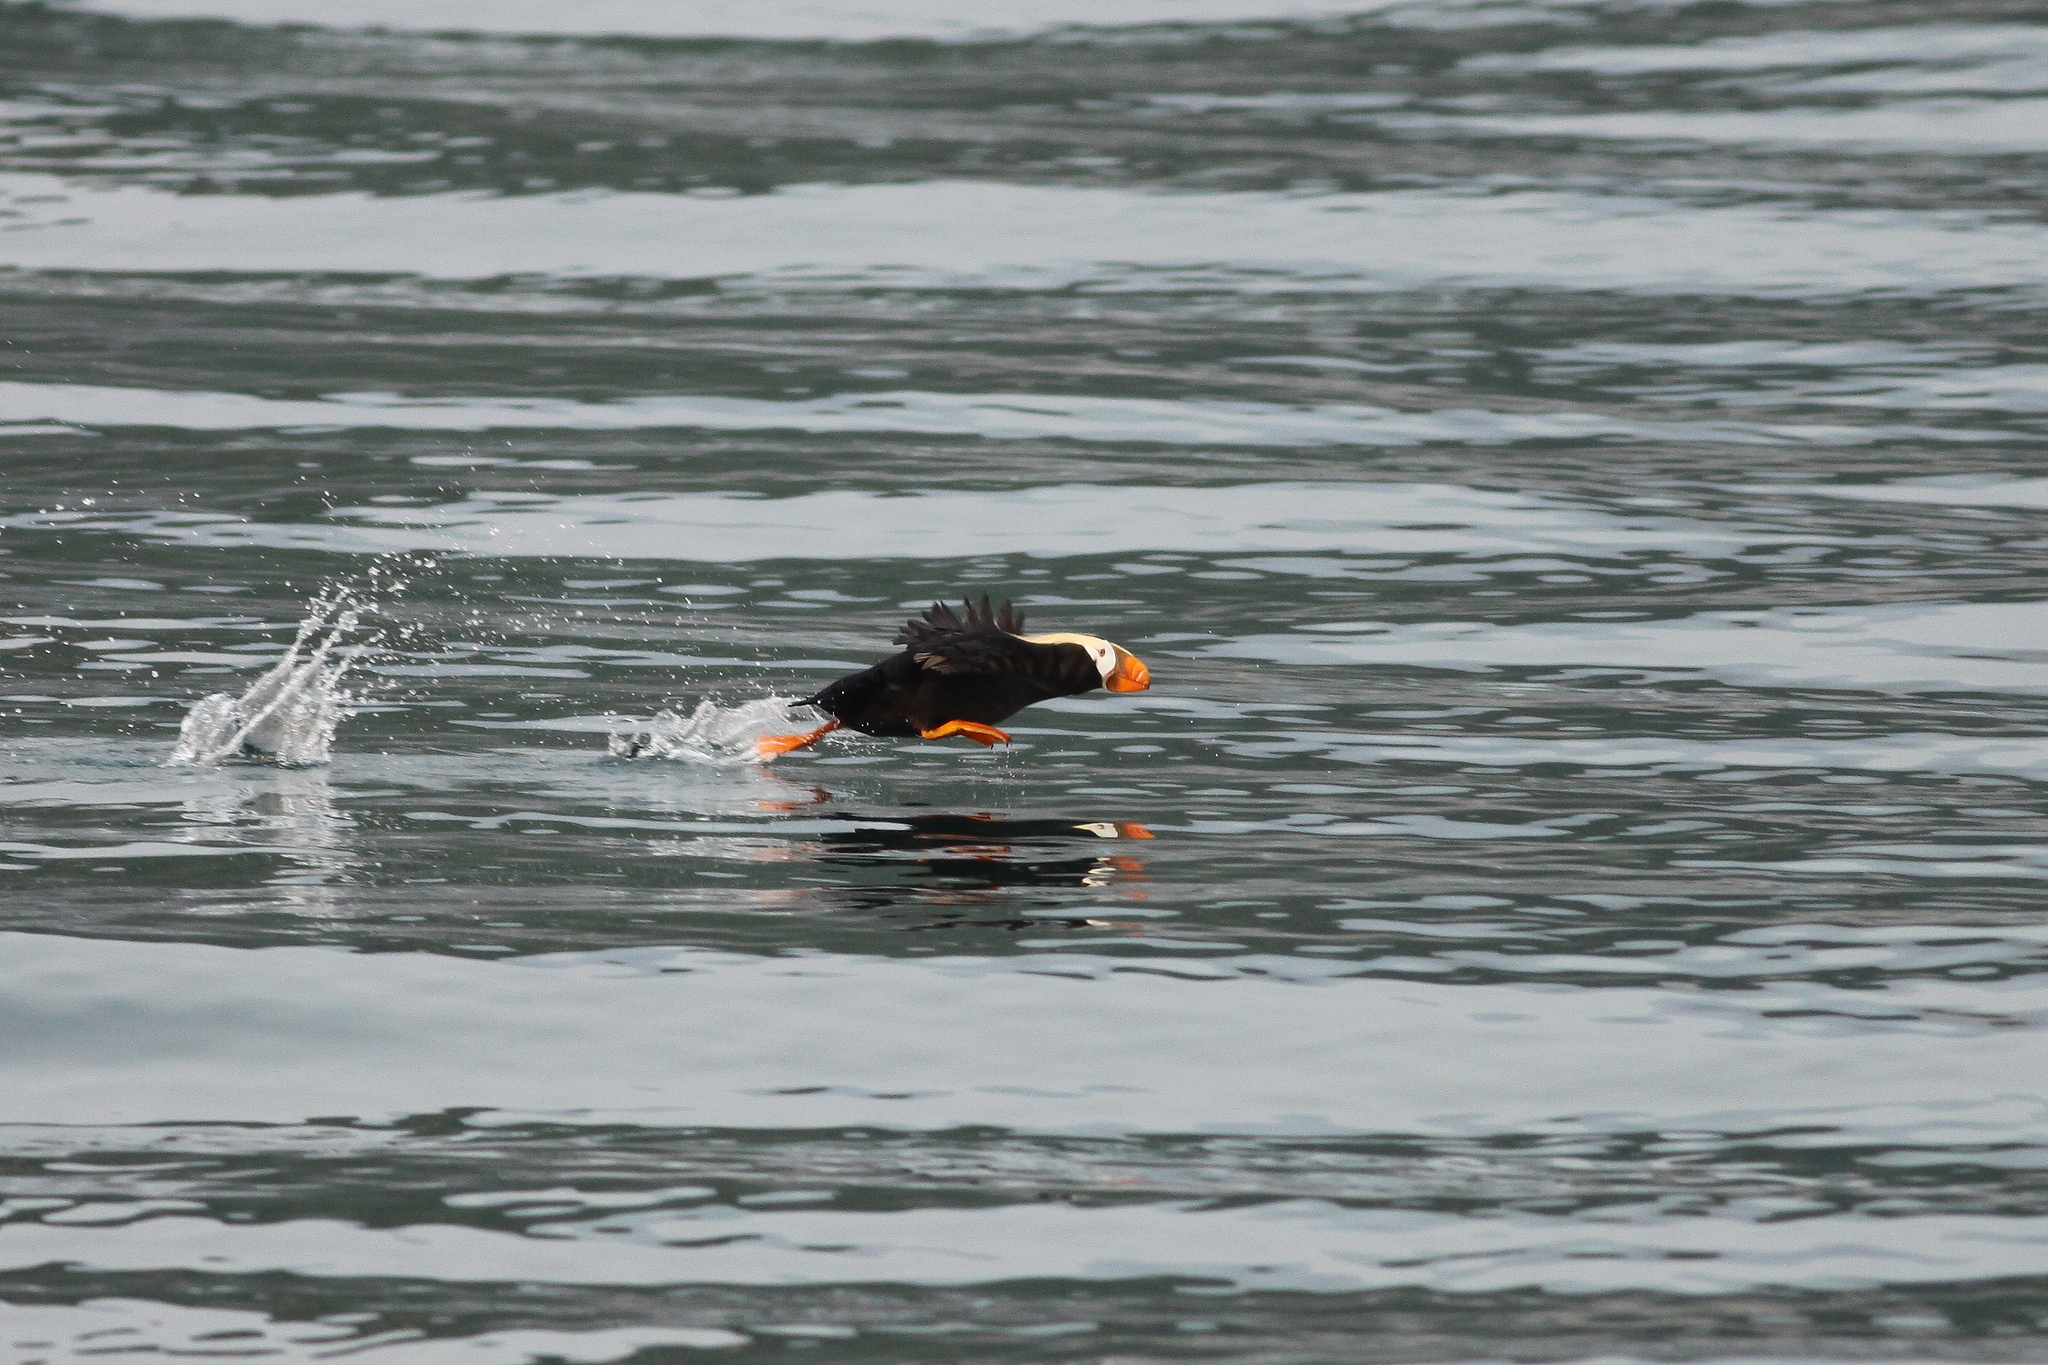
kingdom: Animalia
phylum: Chordata
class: Aves
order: Charadriiformes
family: Alcidae
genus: Fratercula
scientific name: Fratercula cirrhata
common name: Tufted puffin
